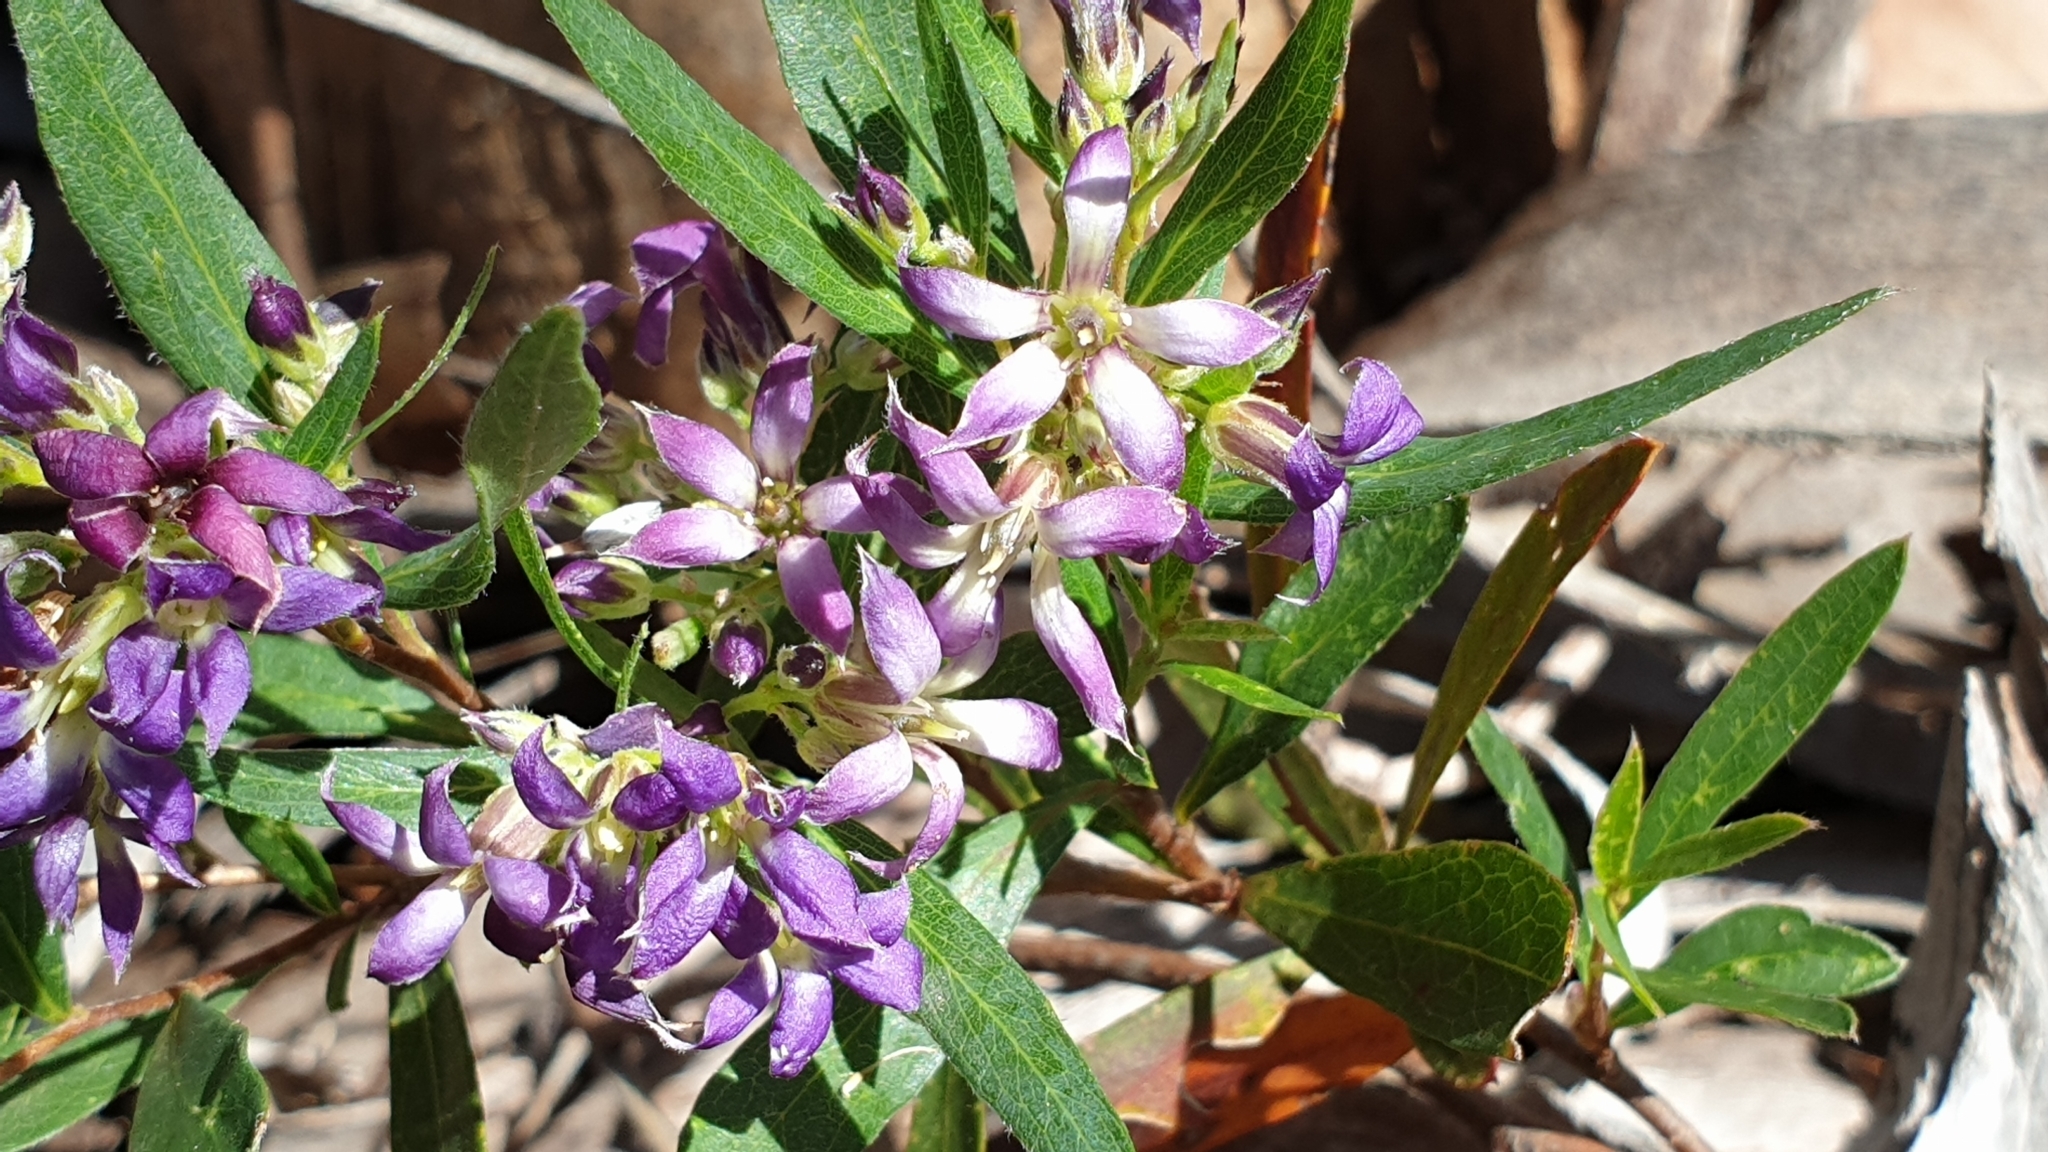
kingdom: Plantae
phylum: Tracheophyta
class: Magnoliopsida
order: Apiales
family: Pittosporaceae
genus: Billardiera
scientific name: Billardiera cymosa
